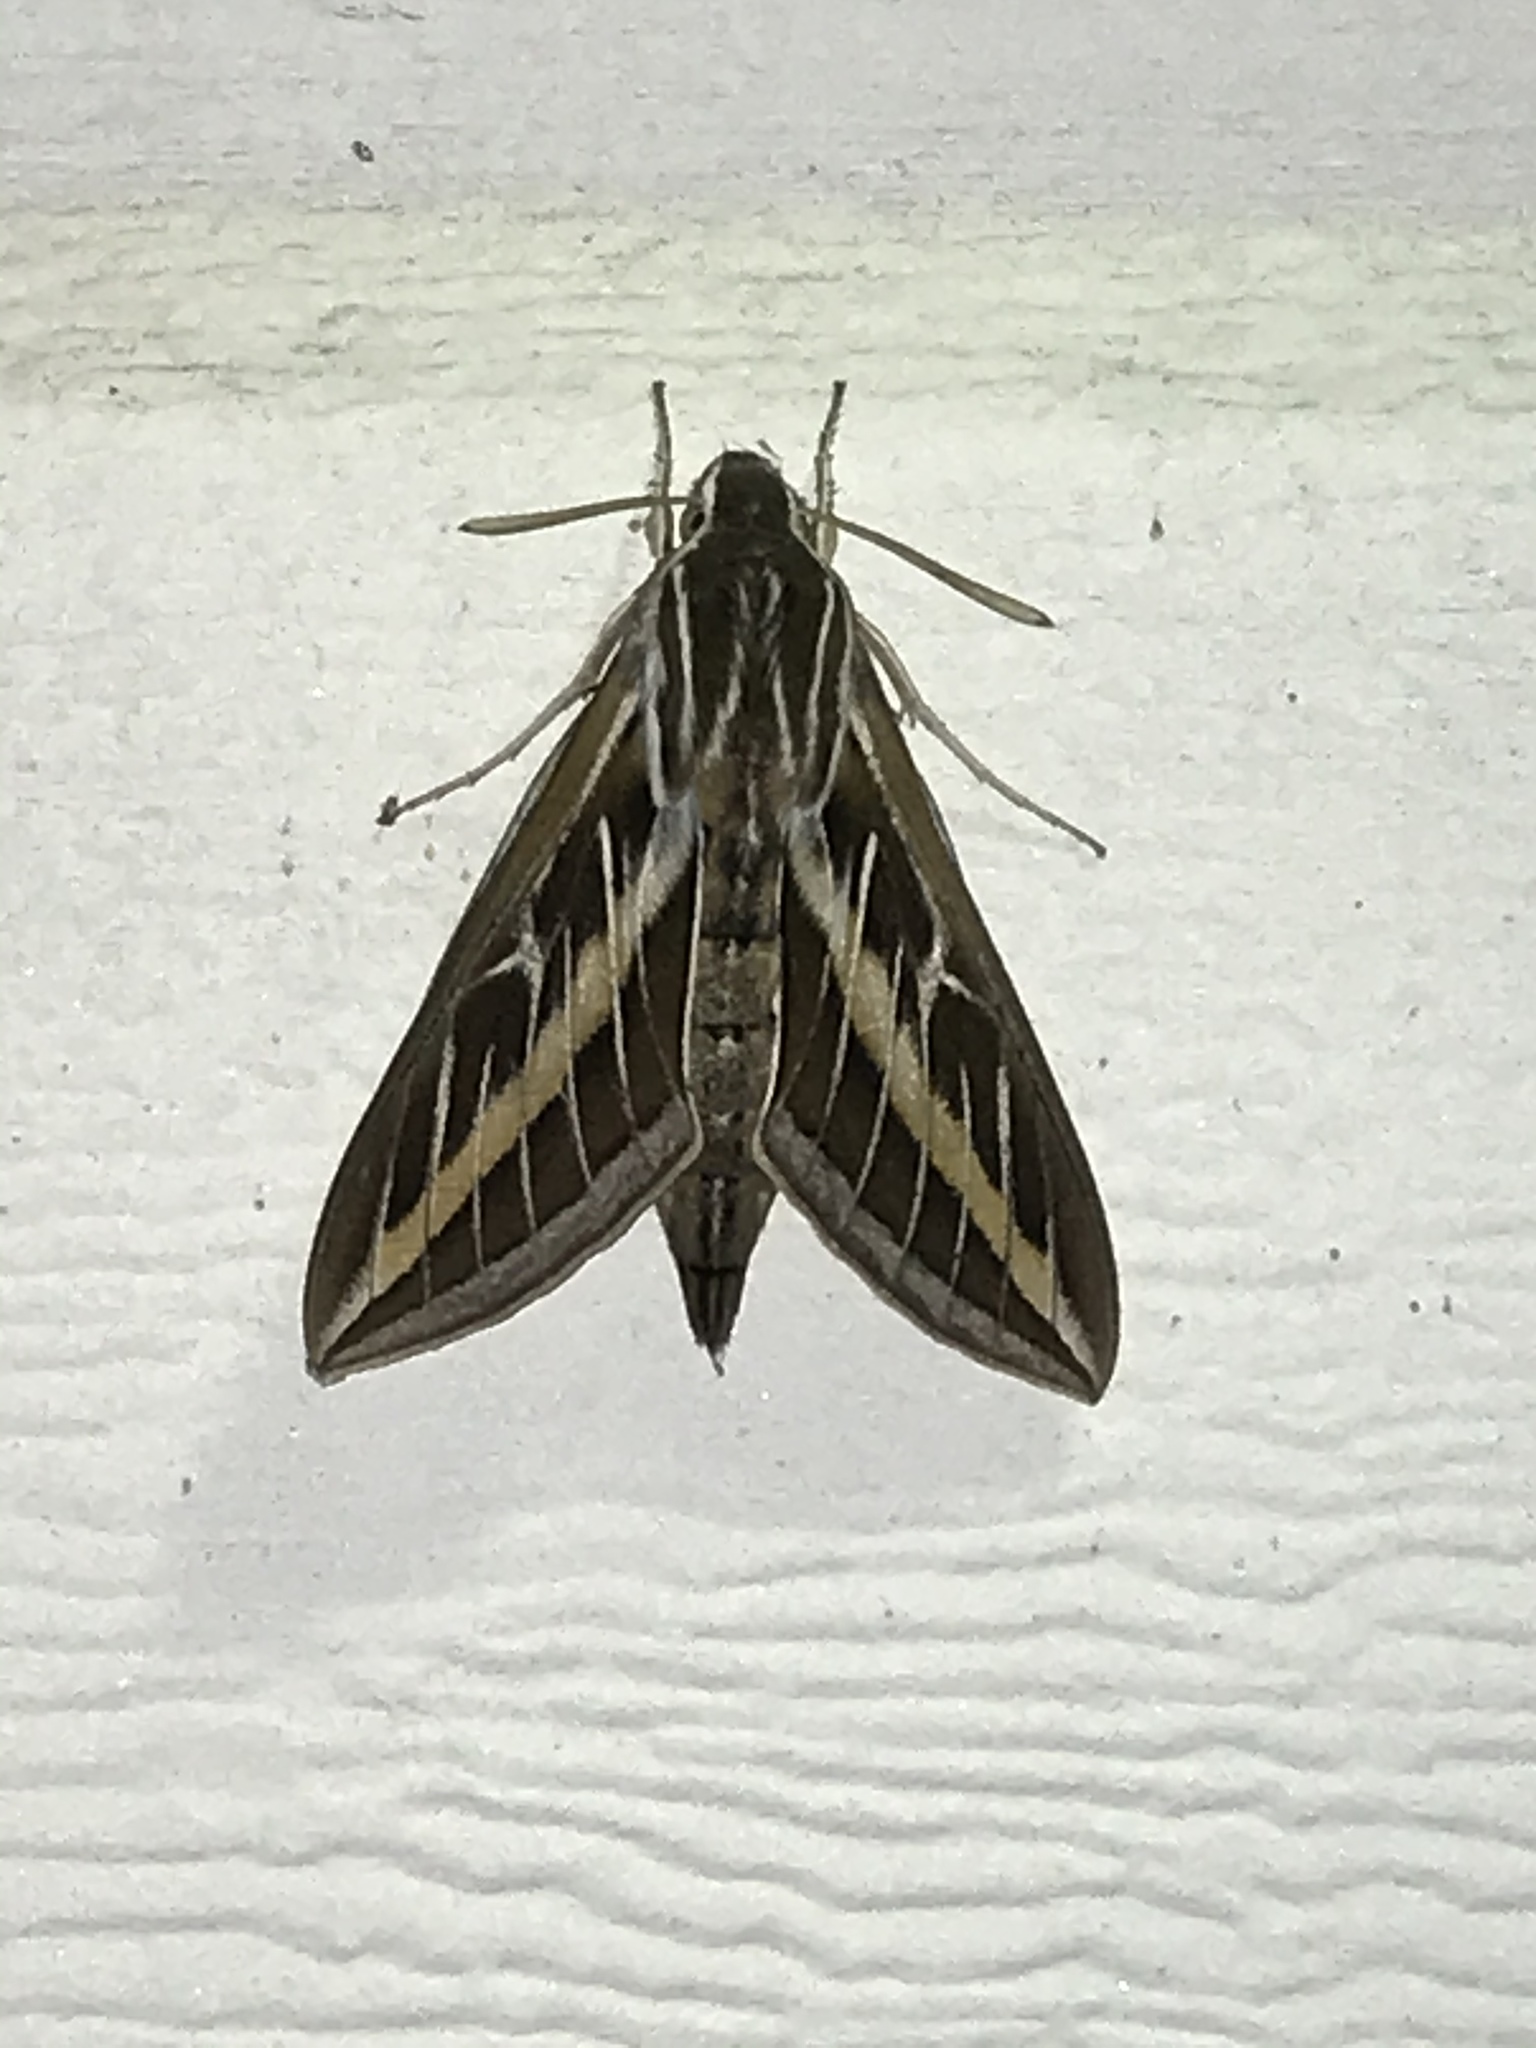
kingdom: Animalia
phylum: Arthropoda
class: Insecta
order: Lepidoptera
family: Sphingidae
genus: Hyles
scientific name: Hyles lineata
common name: White-lined sphinx
